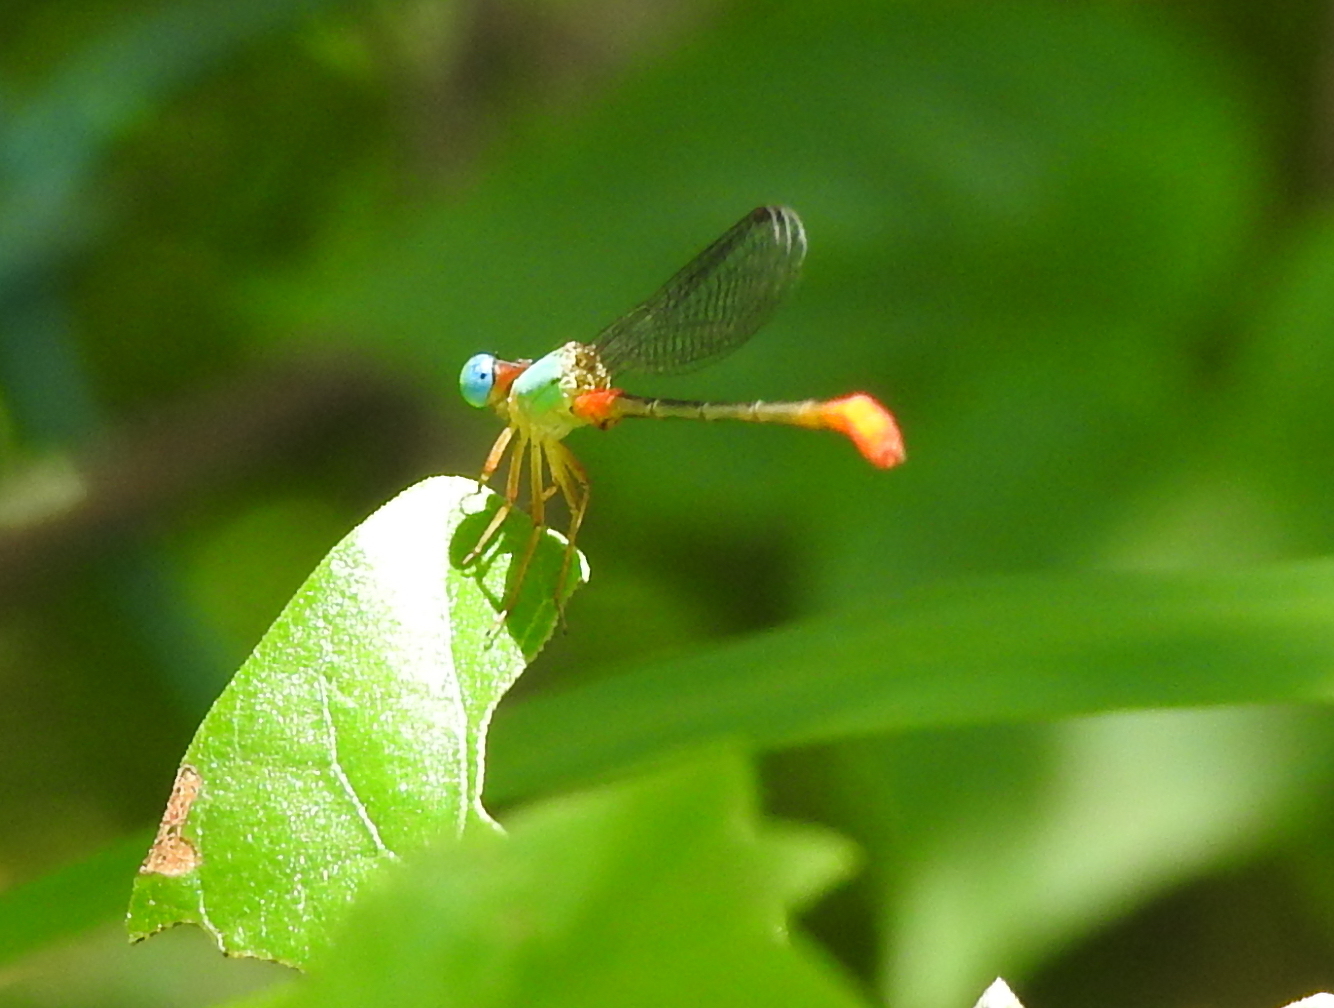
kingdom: Animalia
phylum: Arthropoda
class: Insecta
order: Odonata
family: Coenagrionidae
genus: Ceriagrion
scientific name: Ceriagrion cerinorubellum
